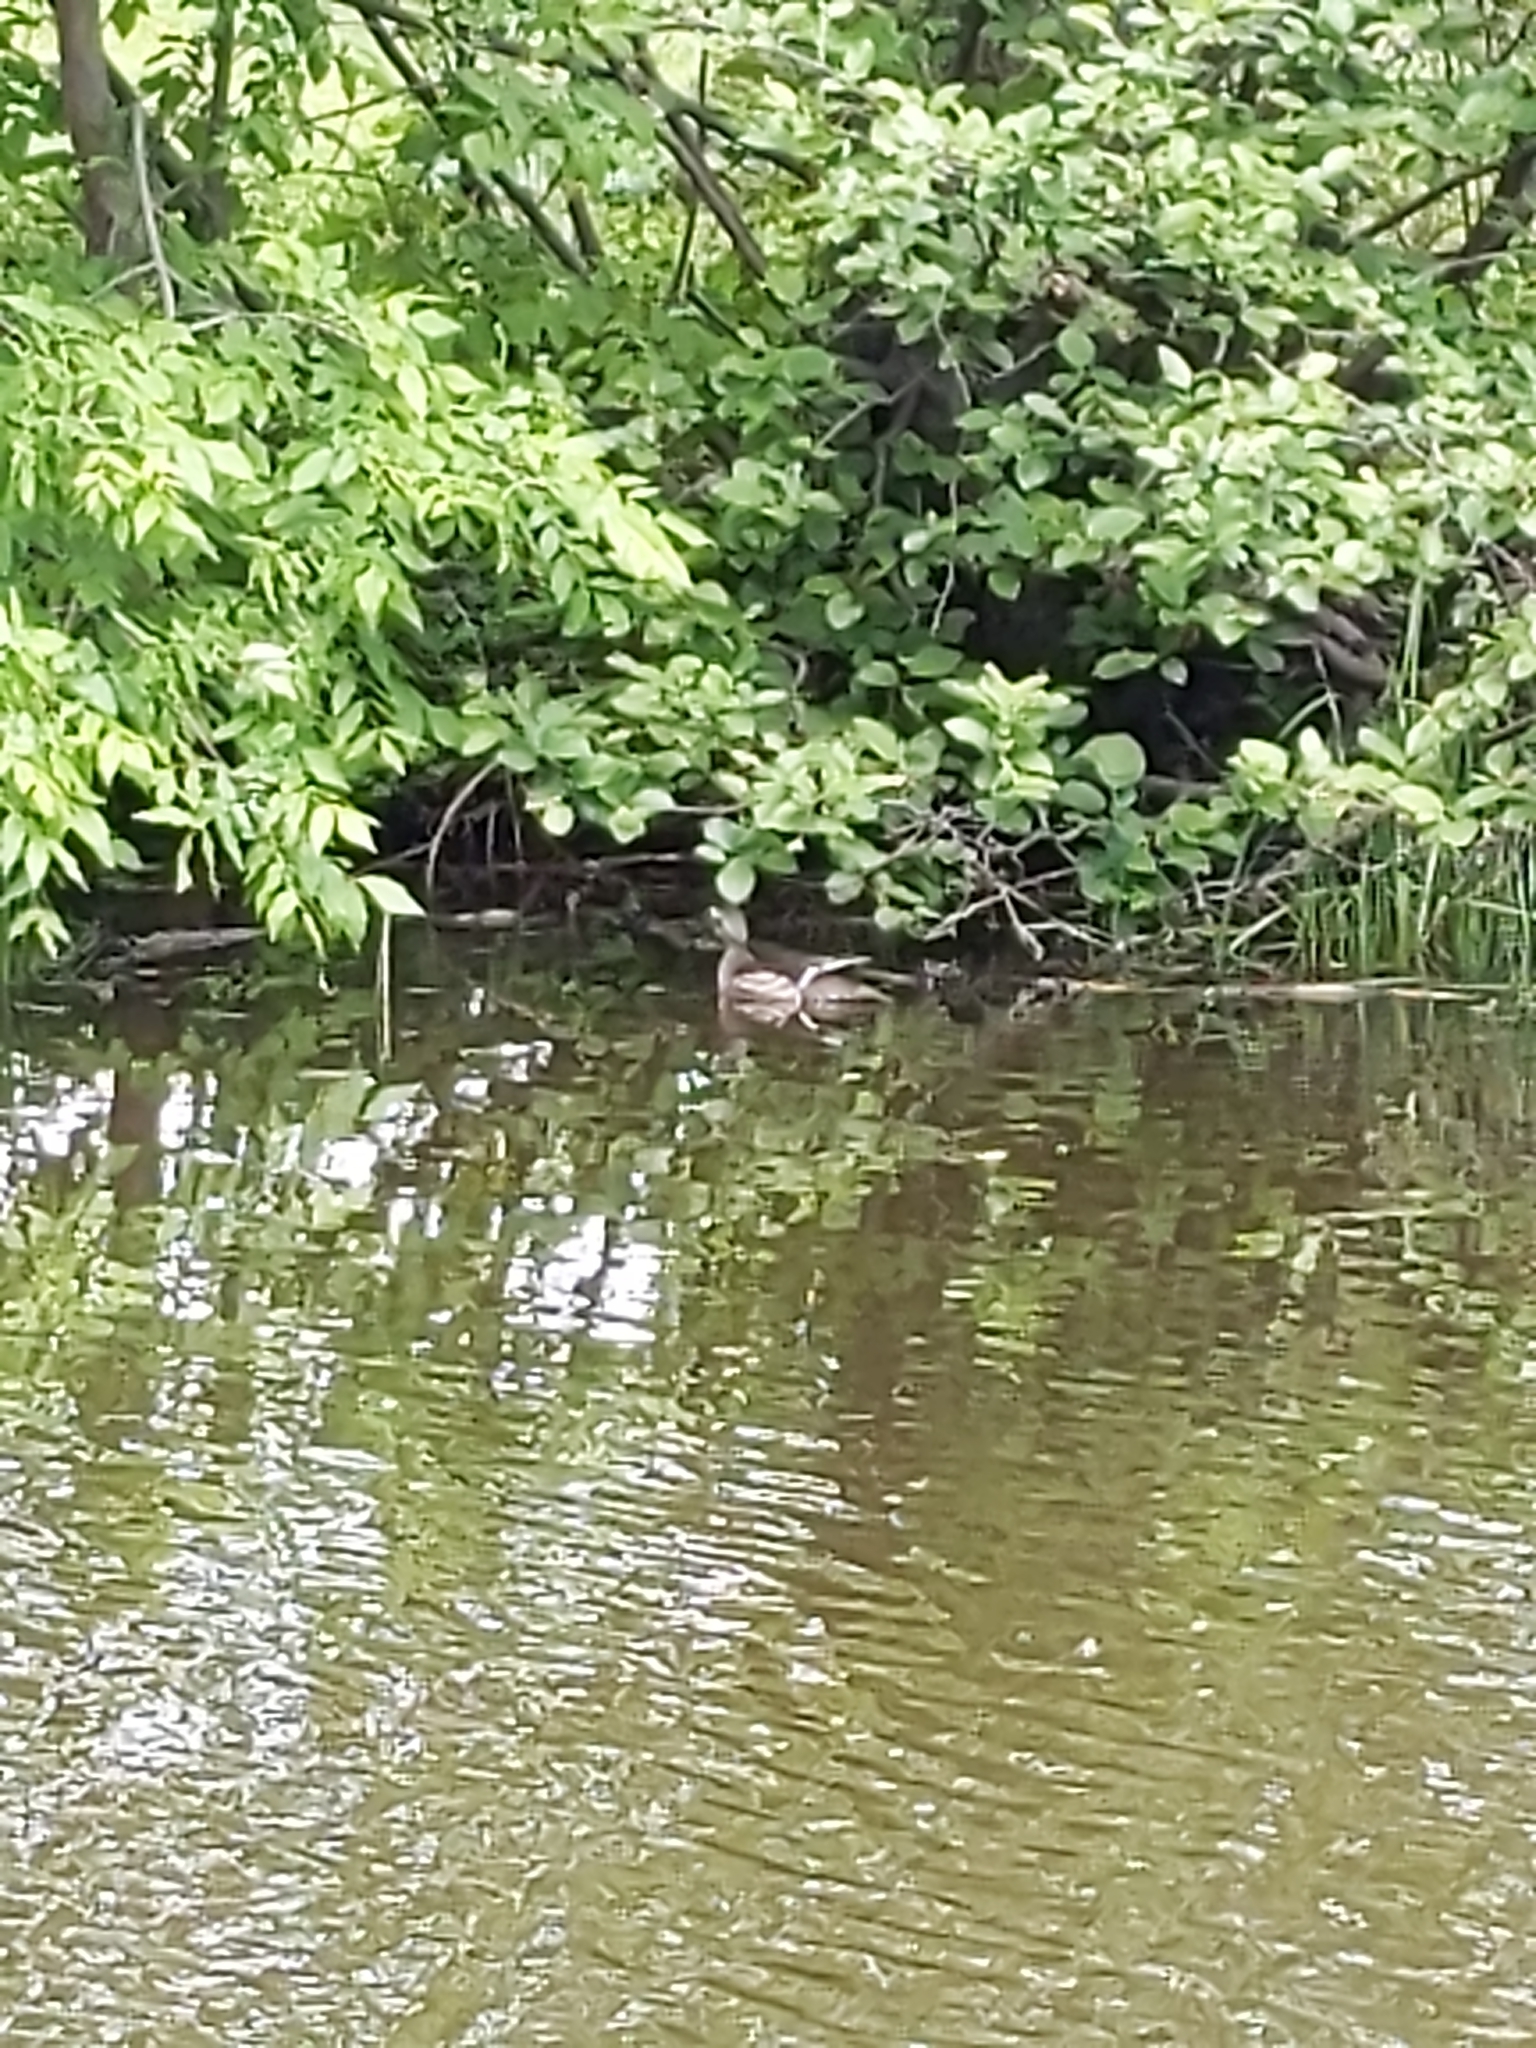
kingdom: Animalia
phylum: Chordata
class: Aves
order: Anseriformes
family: Anatidae
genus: Aix
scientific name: Aix sponsa
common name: Wood duck
